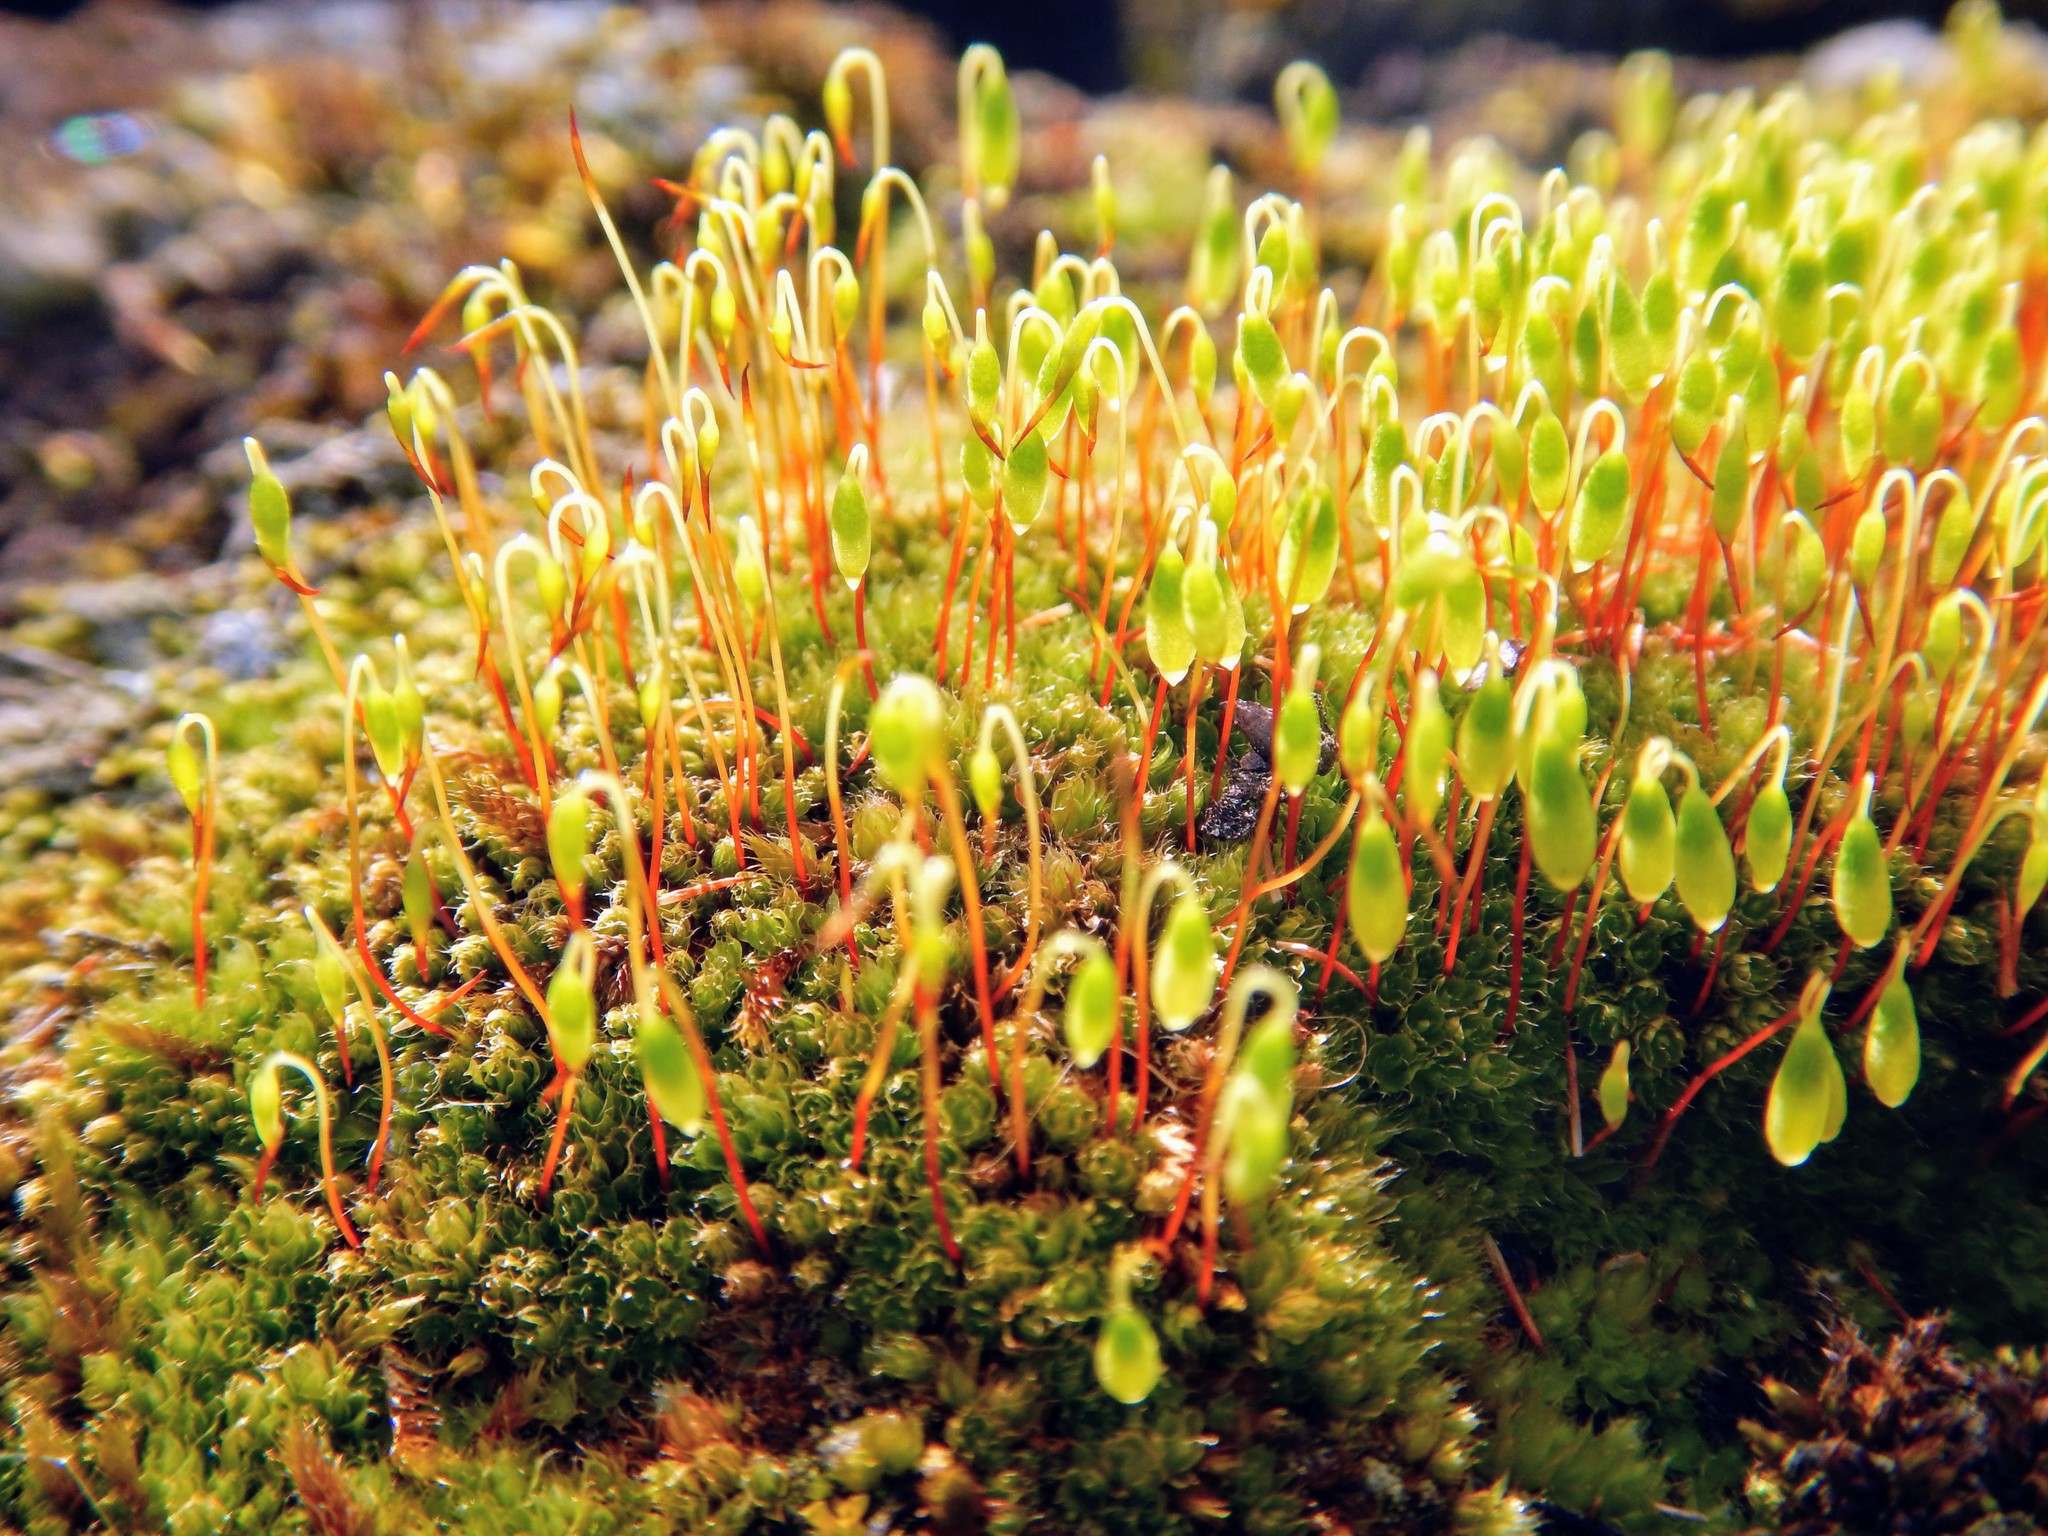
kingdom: Plantae
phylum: Bryophyta
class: Bryopsida
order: Bryales
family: Bryaceae
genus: Rosulabryum
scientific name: Rosulabryum capillare
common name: Capillary thread-moss
